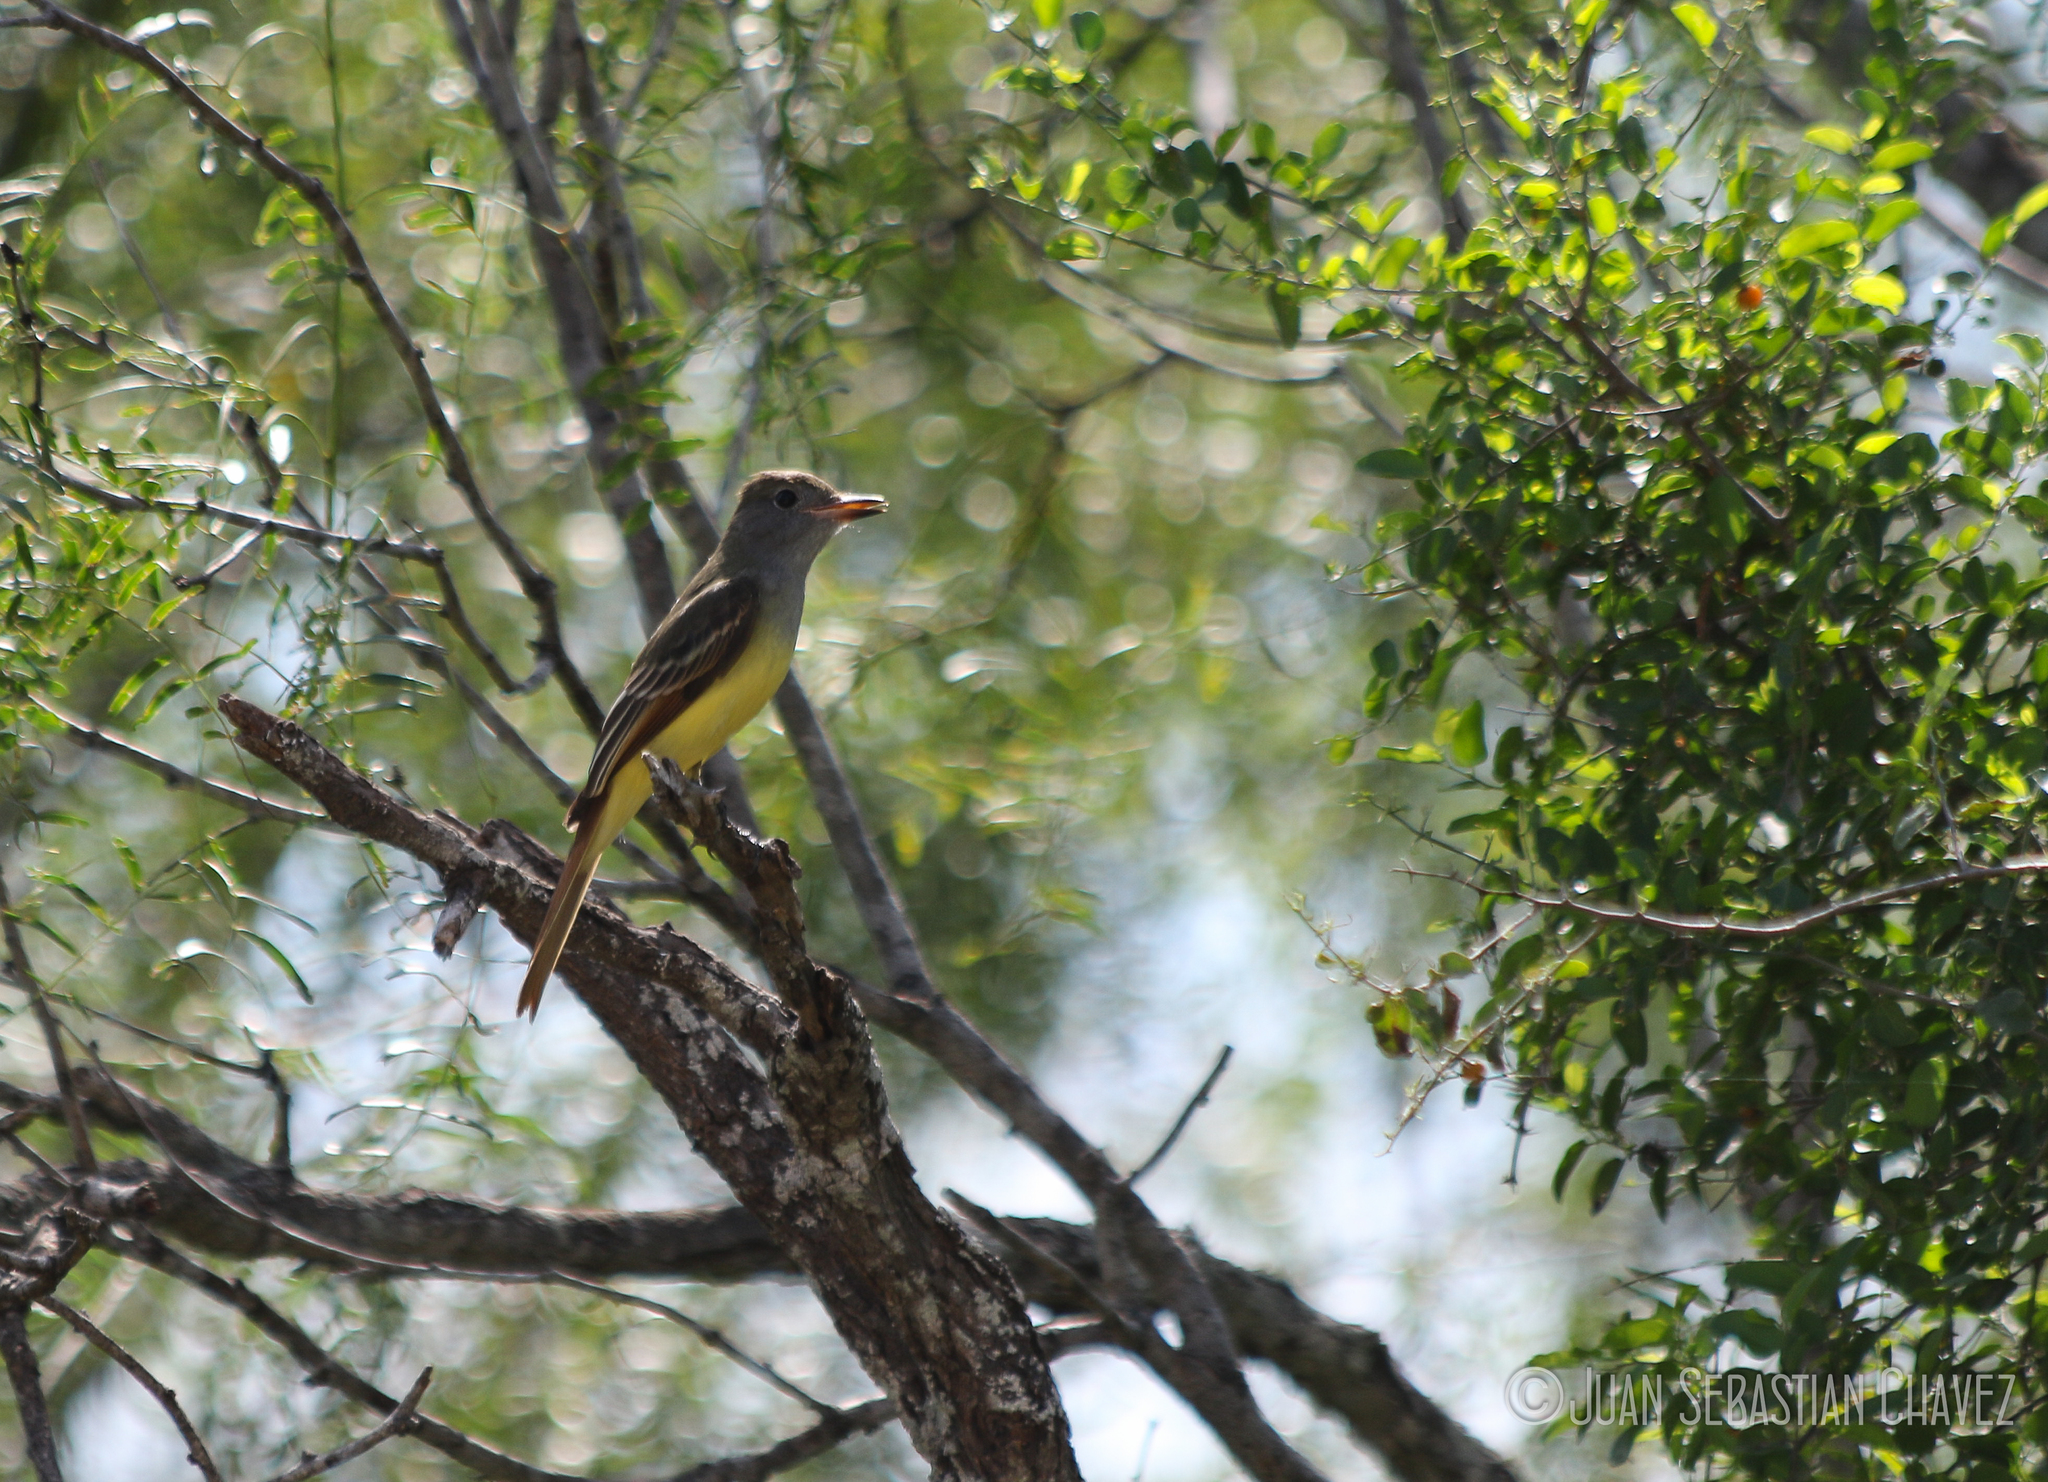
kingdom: Animalia
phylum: Chordata
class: Aves
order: Passeriformes
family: Tyrannidae
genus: Myiarchus
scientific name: Myiarchus crinitus
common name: Great crested flycatcher
